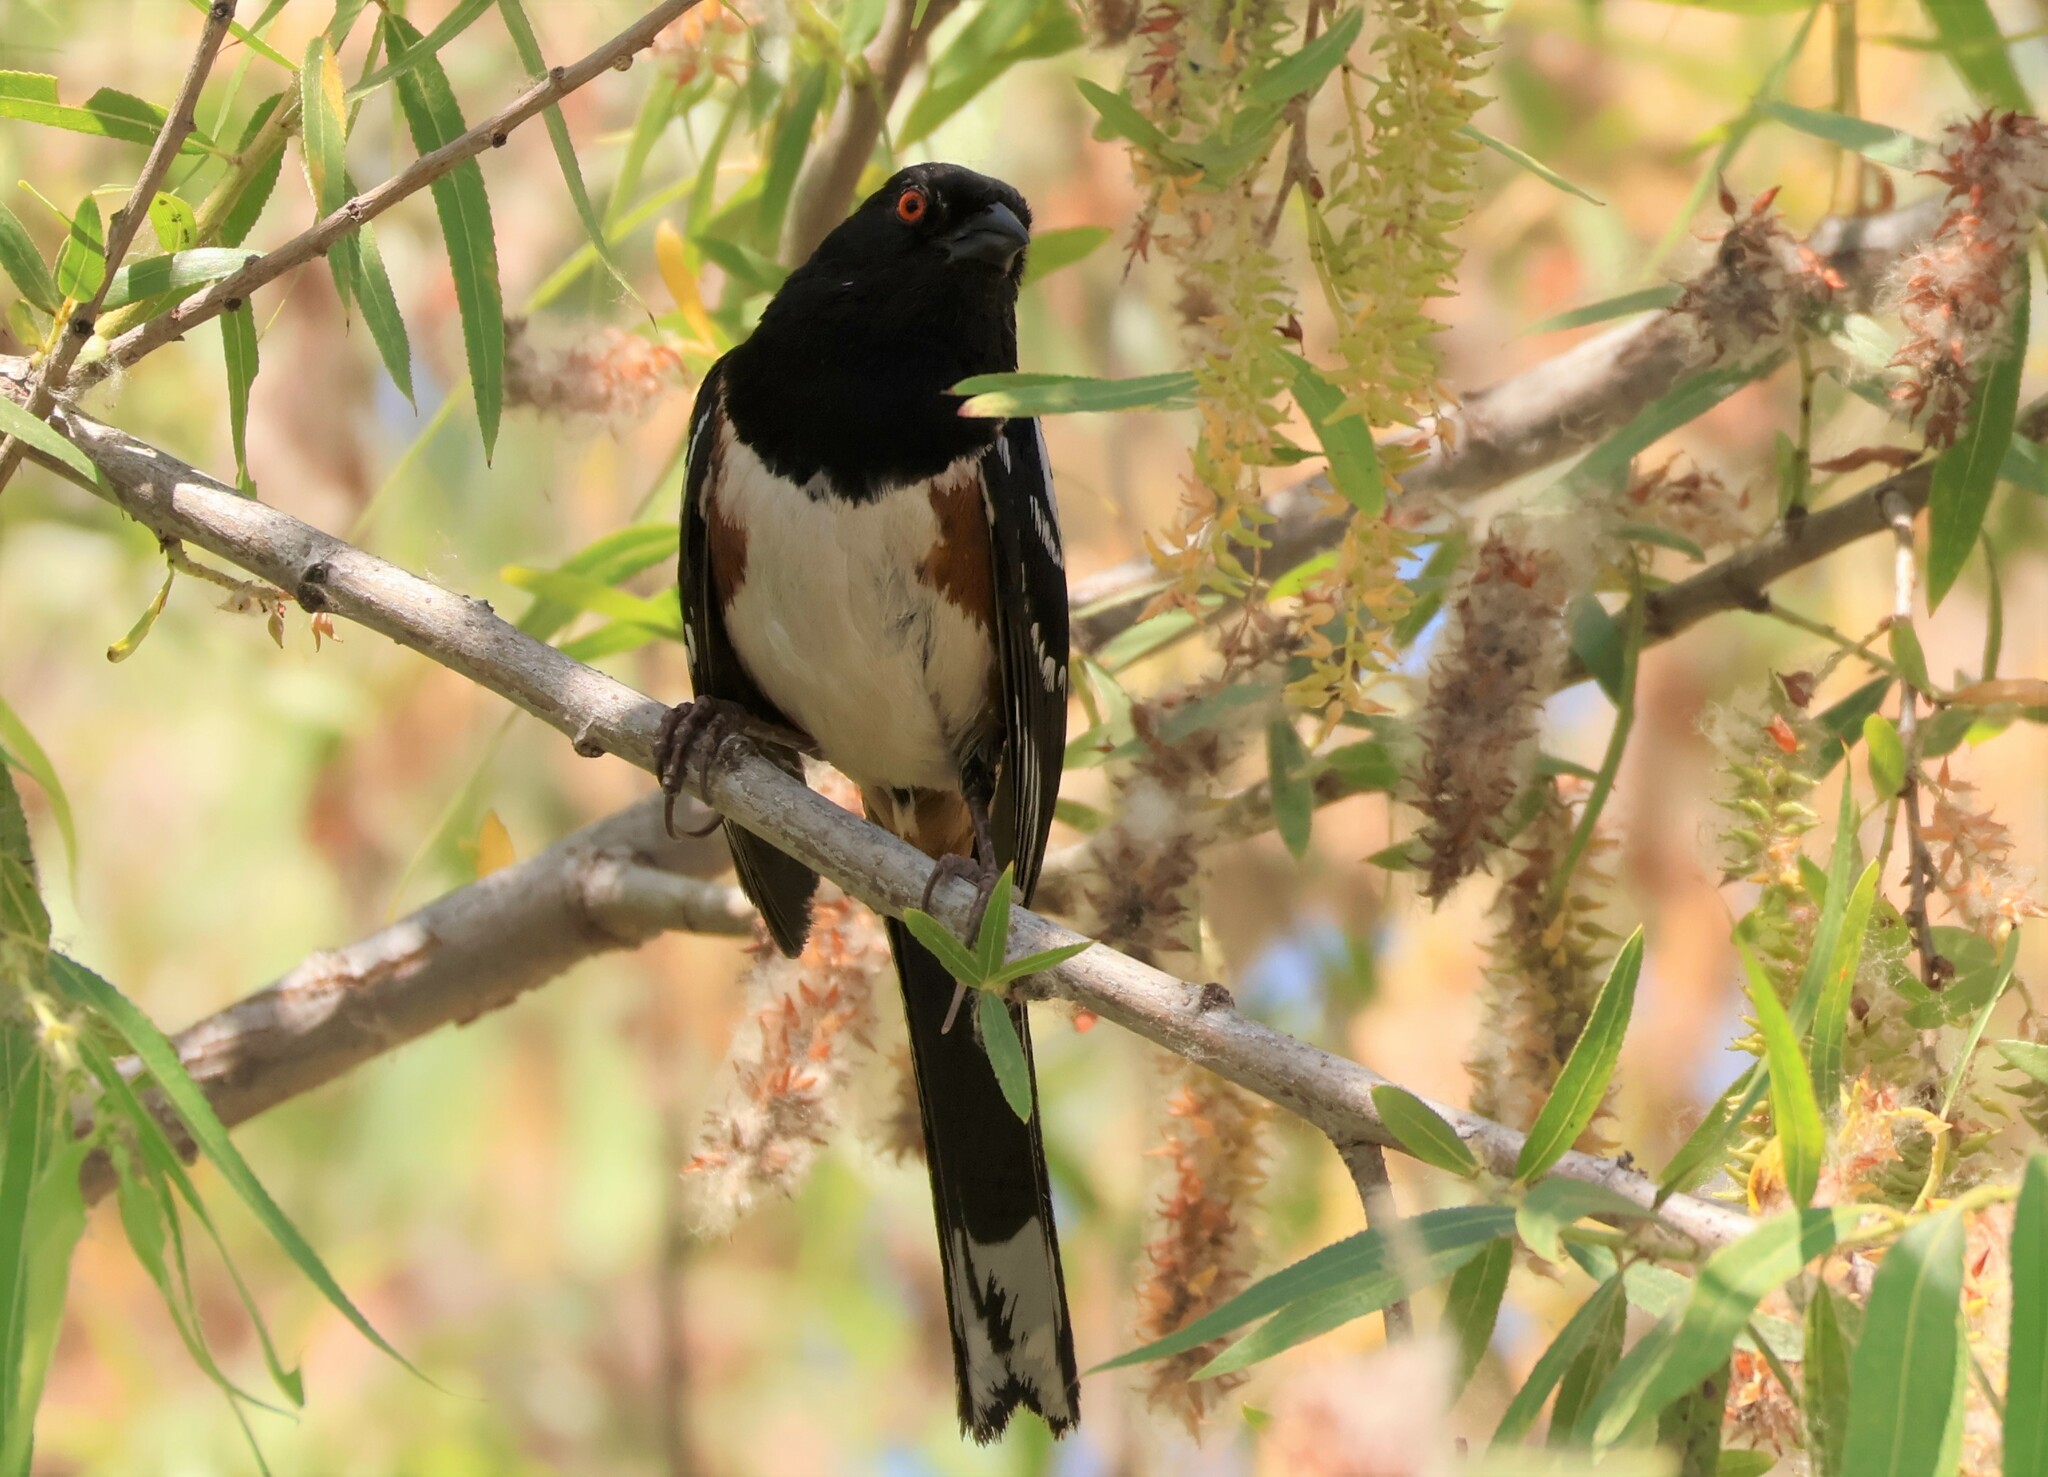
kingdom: Animalia
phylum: Chordata
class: Aves
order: Passeriformes
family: Passerellidae
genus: Pipilo
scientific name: Pipilo maculatus
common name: Spotted towhee
